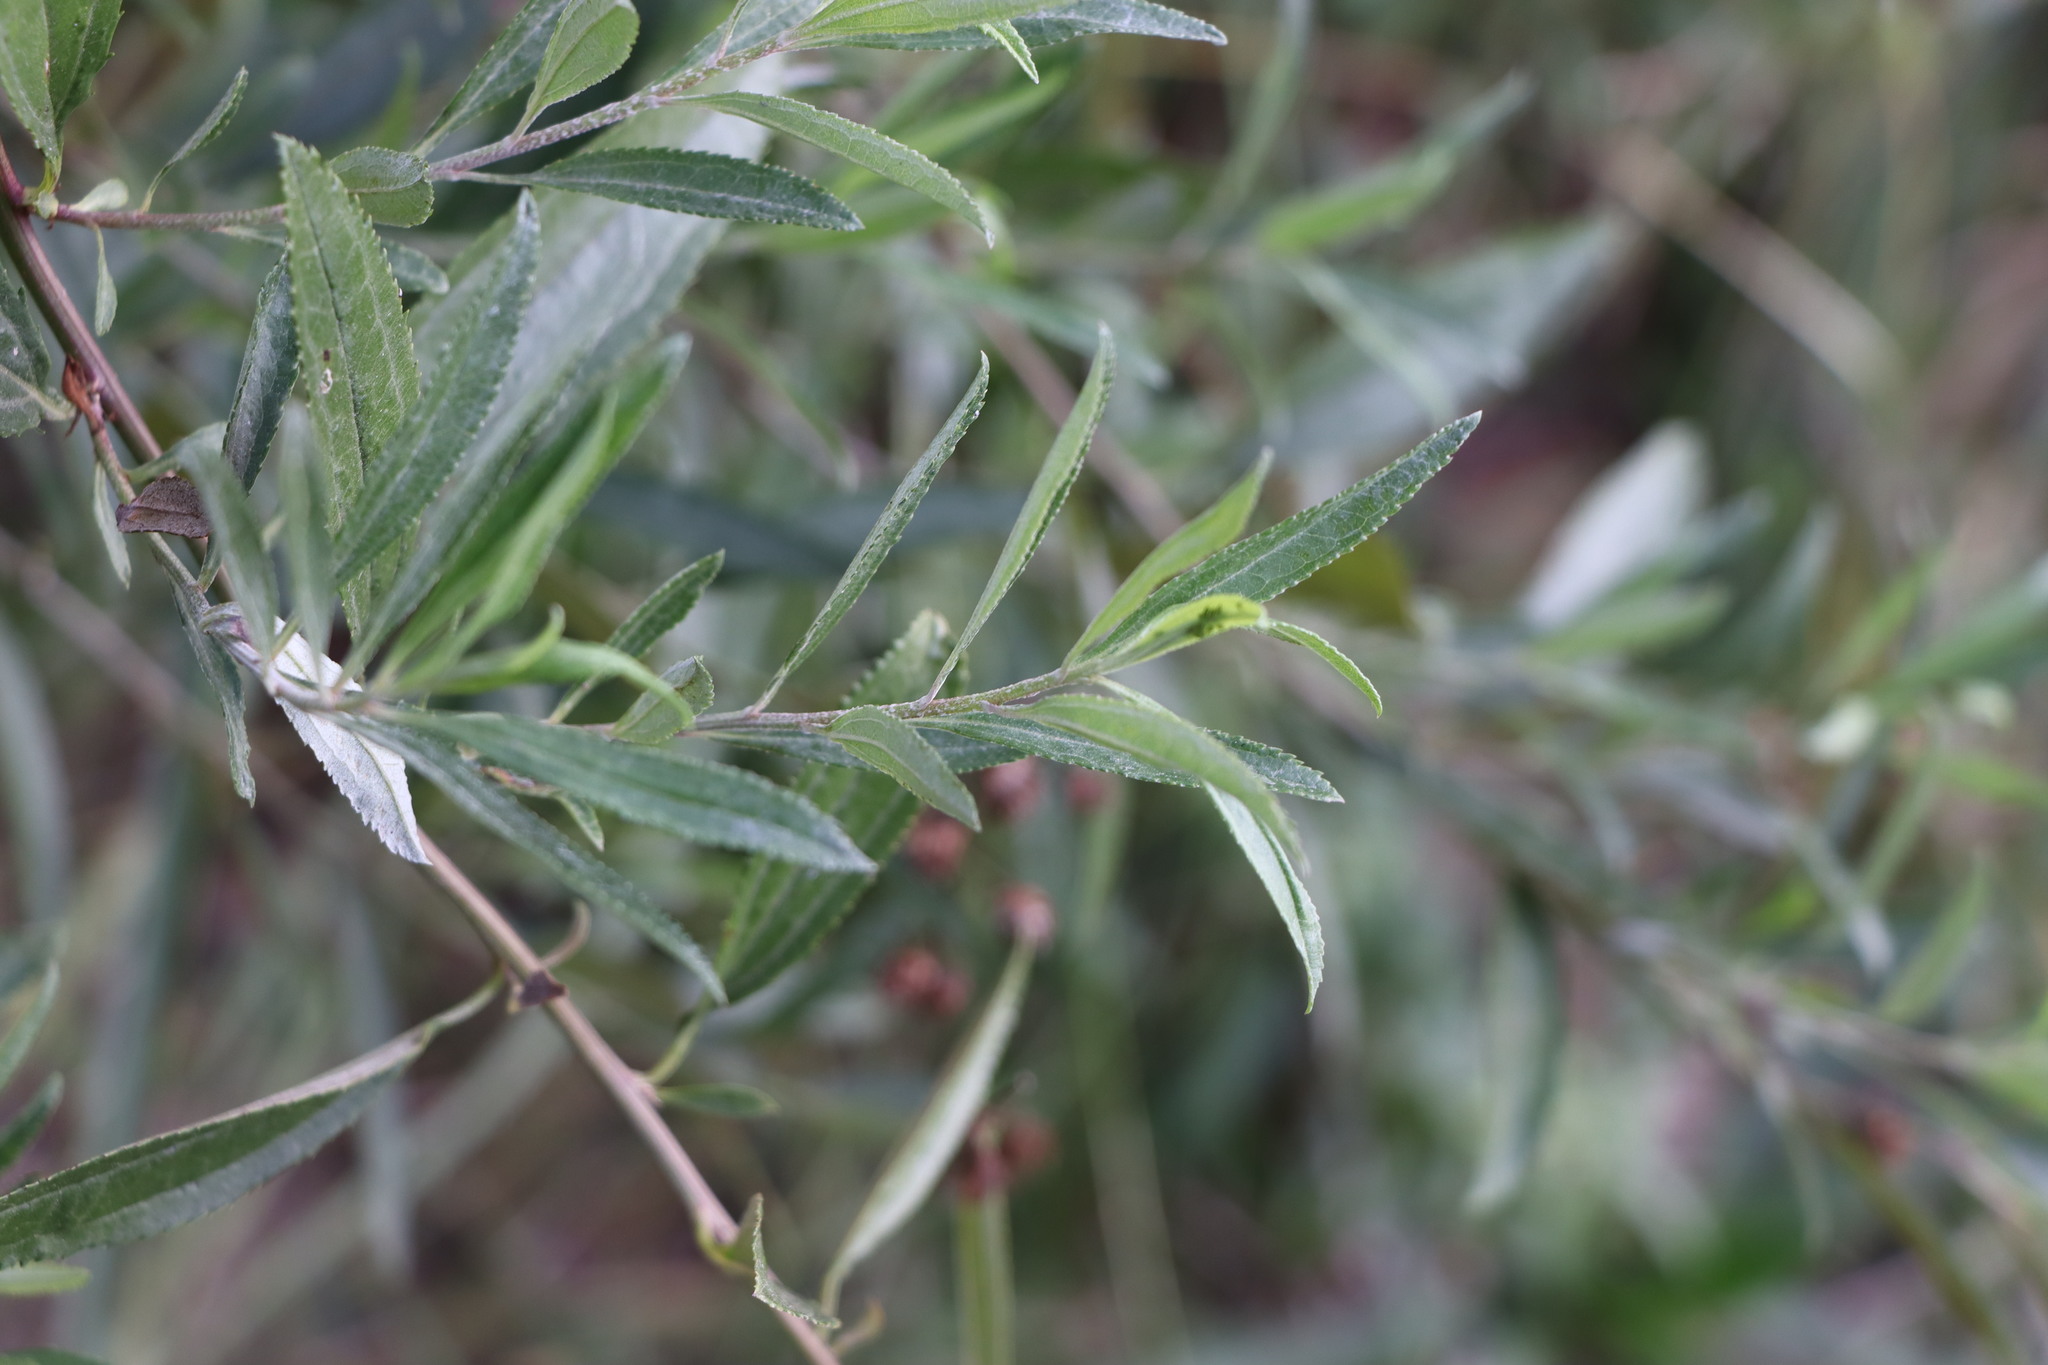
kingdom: Plantae
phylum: Tracheophyta
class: Magnoliopsida
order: Asterales
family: Asteraceae
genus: Baccharis
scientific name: Baccharis punctulata
